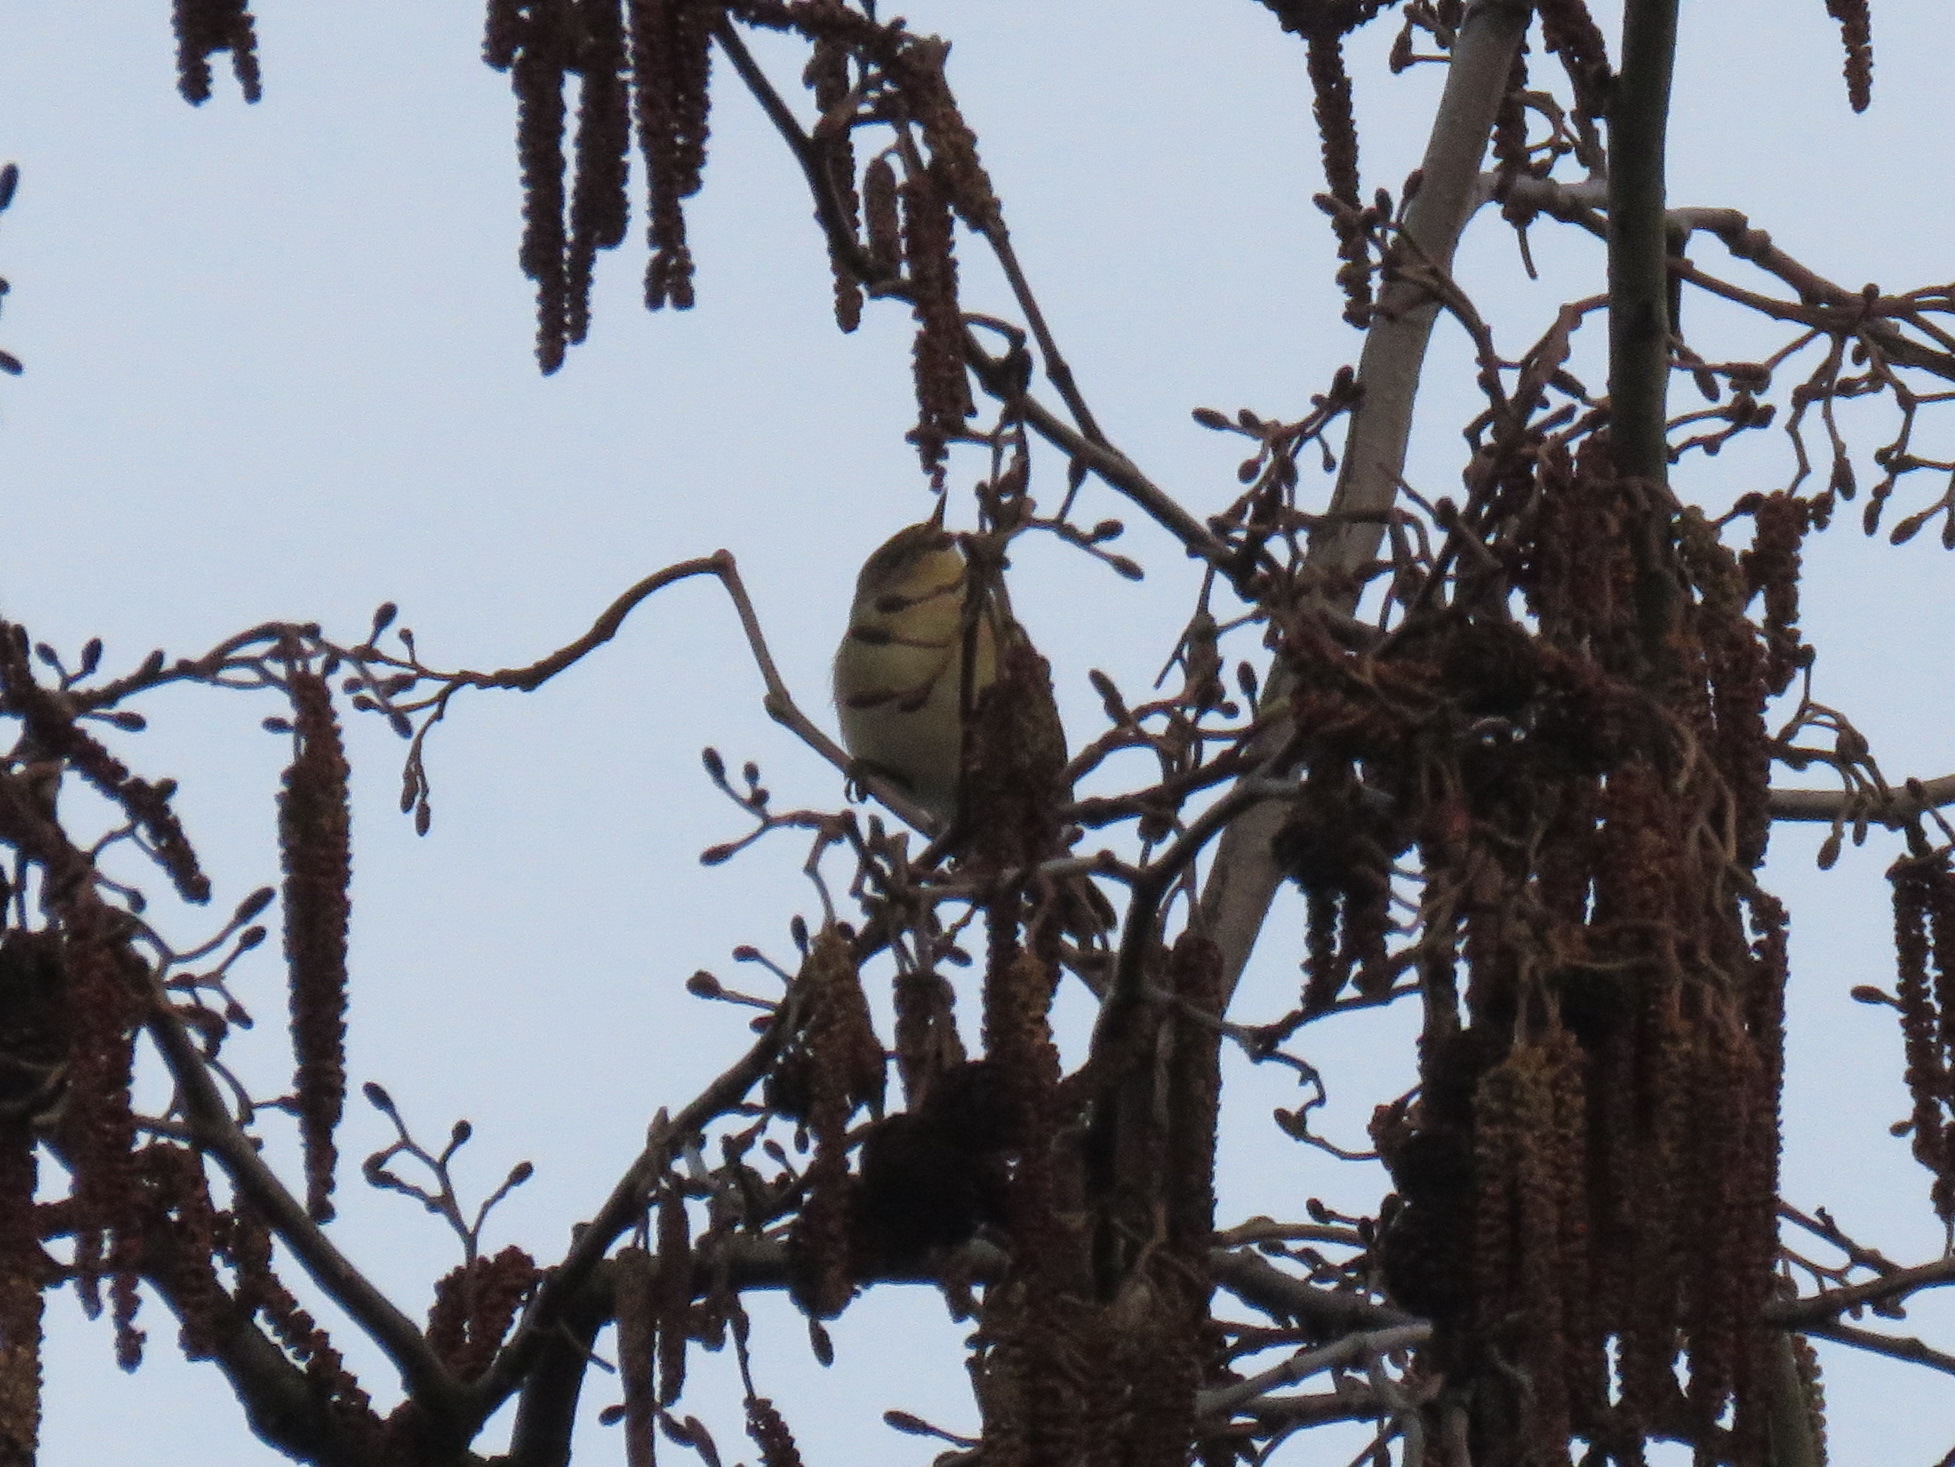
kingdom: Animalia
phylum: Chordata
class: Aves
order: Passeriformes
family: Phylloscopidae
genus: Phylloscopus
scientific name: Phylloscopus collybita
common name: Common chiffchaff
